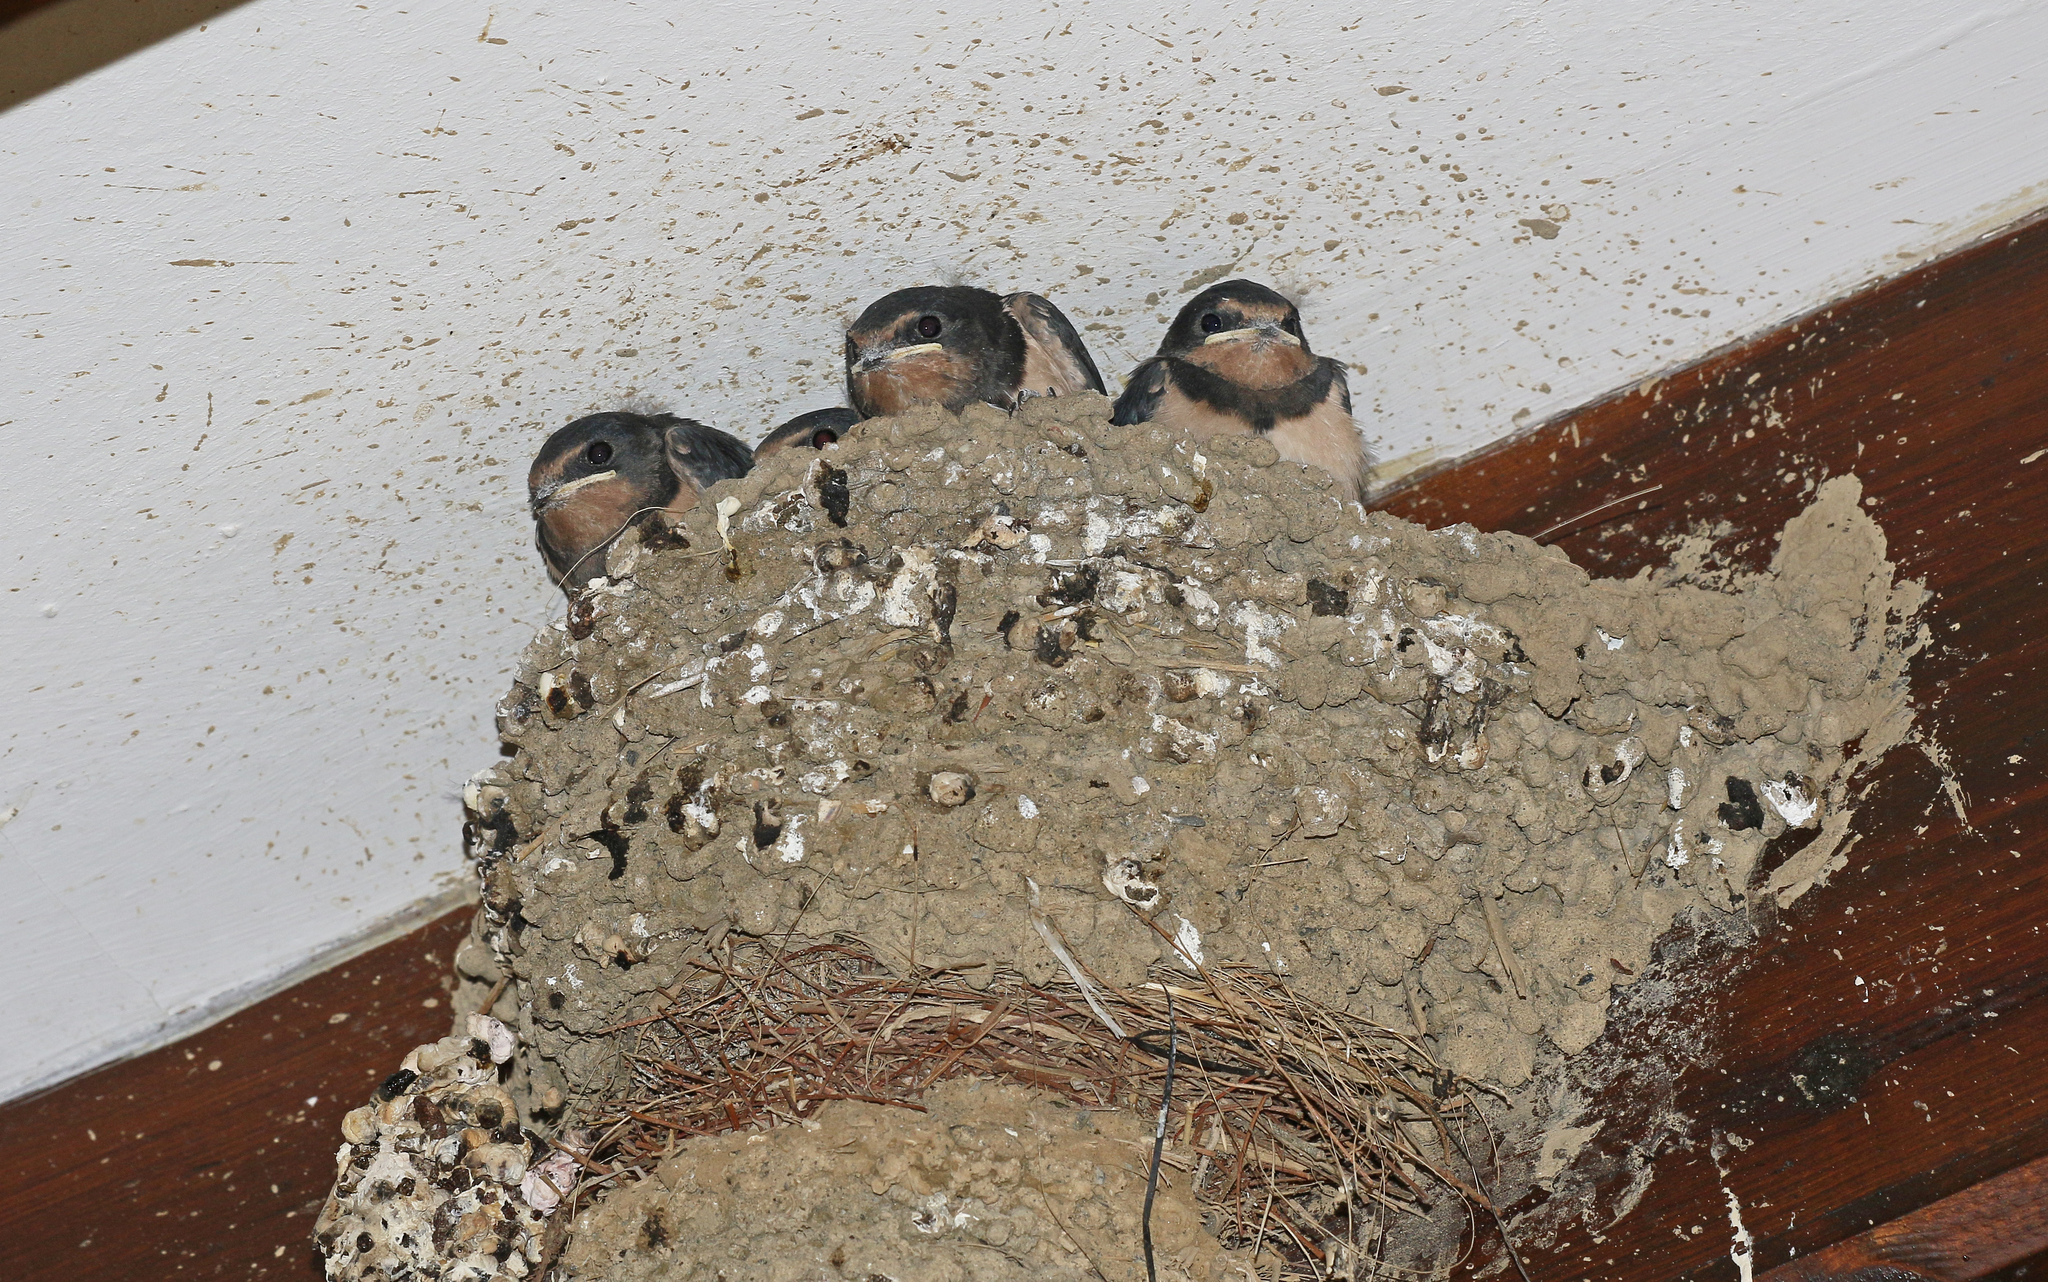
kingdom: Animalia
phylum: Chordata
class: Aves
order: Passeriformes
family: Hirundinidae
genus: Hirundo
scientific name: Hirundo rustica
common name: Barn swallow
